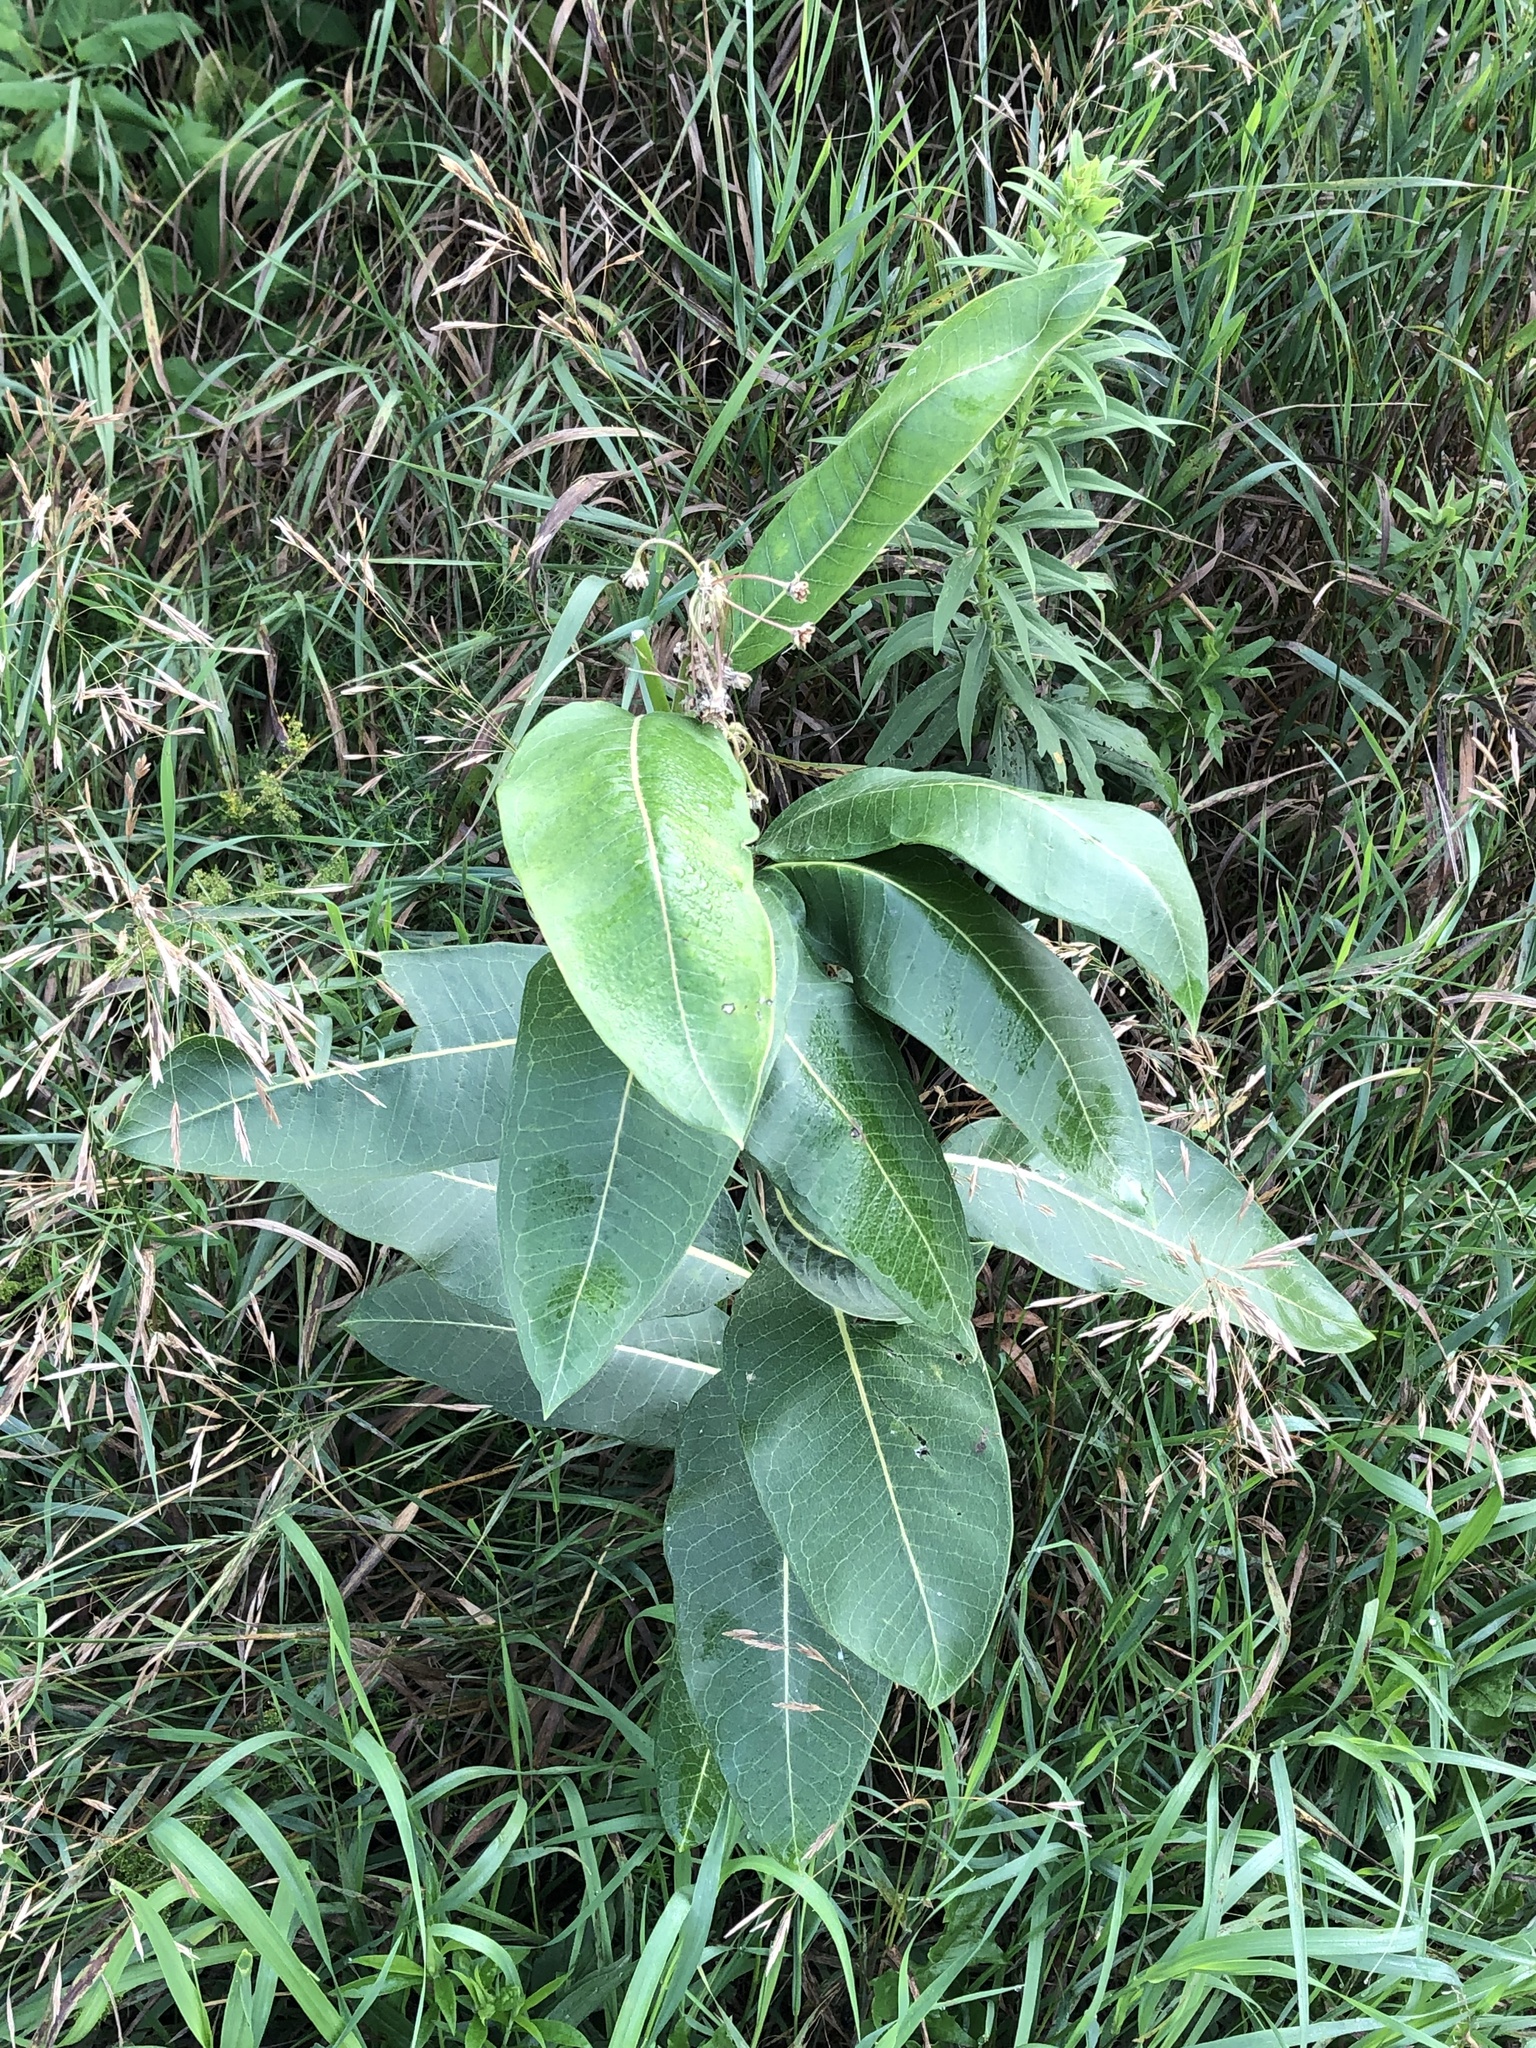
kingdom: Plantae
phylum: Tracheophyta
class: Magnoliopsida
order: Gentianales
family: Apocynaceae
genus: Asclepias
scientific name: Asclepias syriaca
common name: Common milkweed
